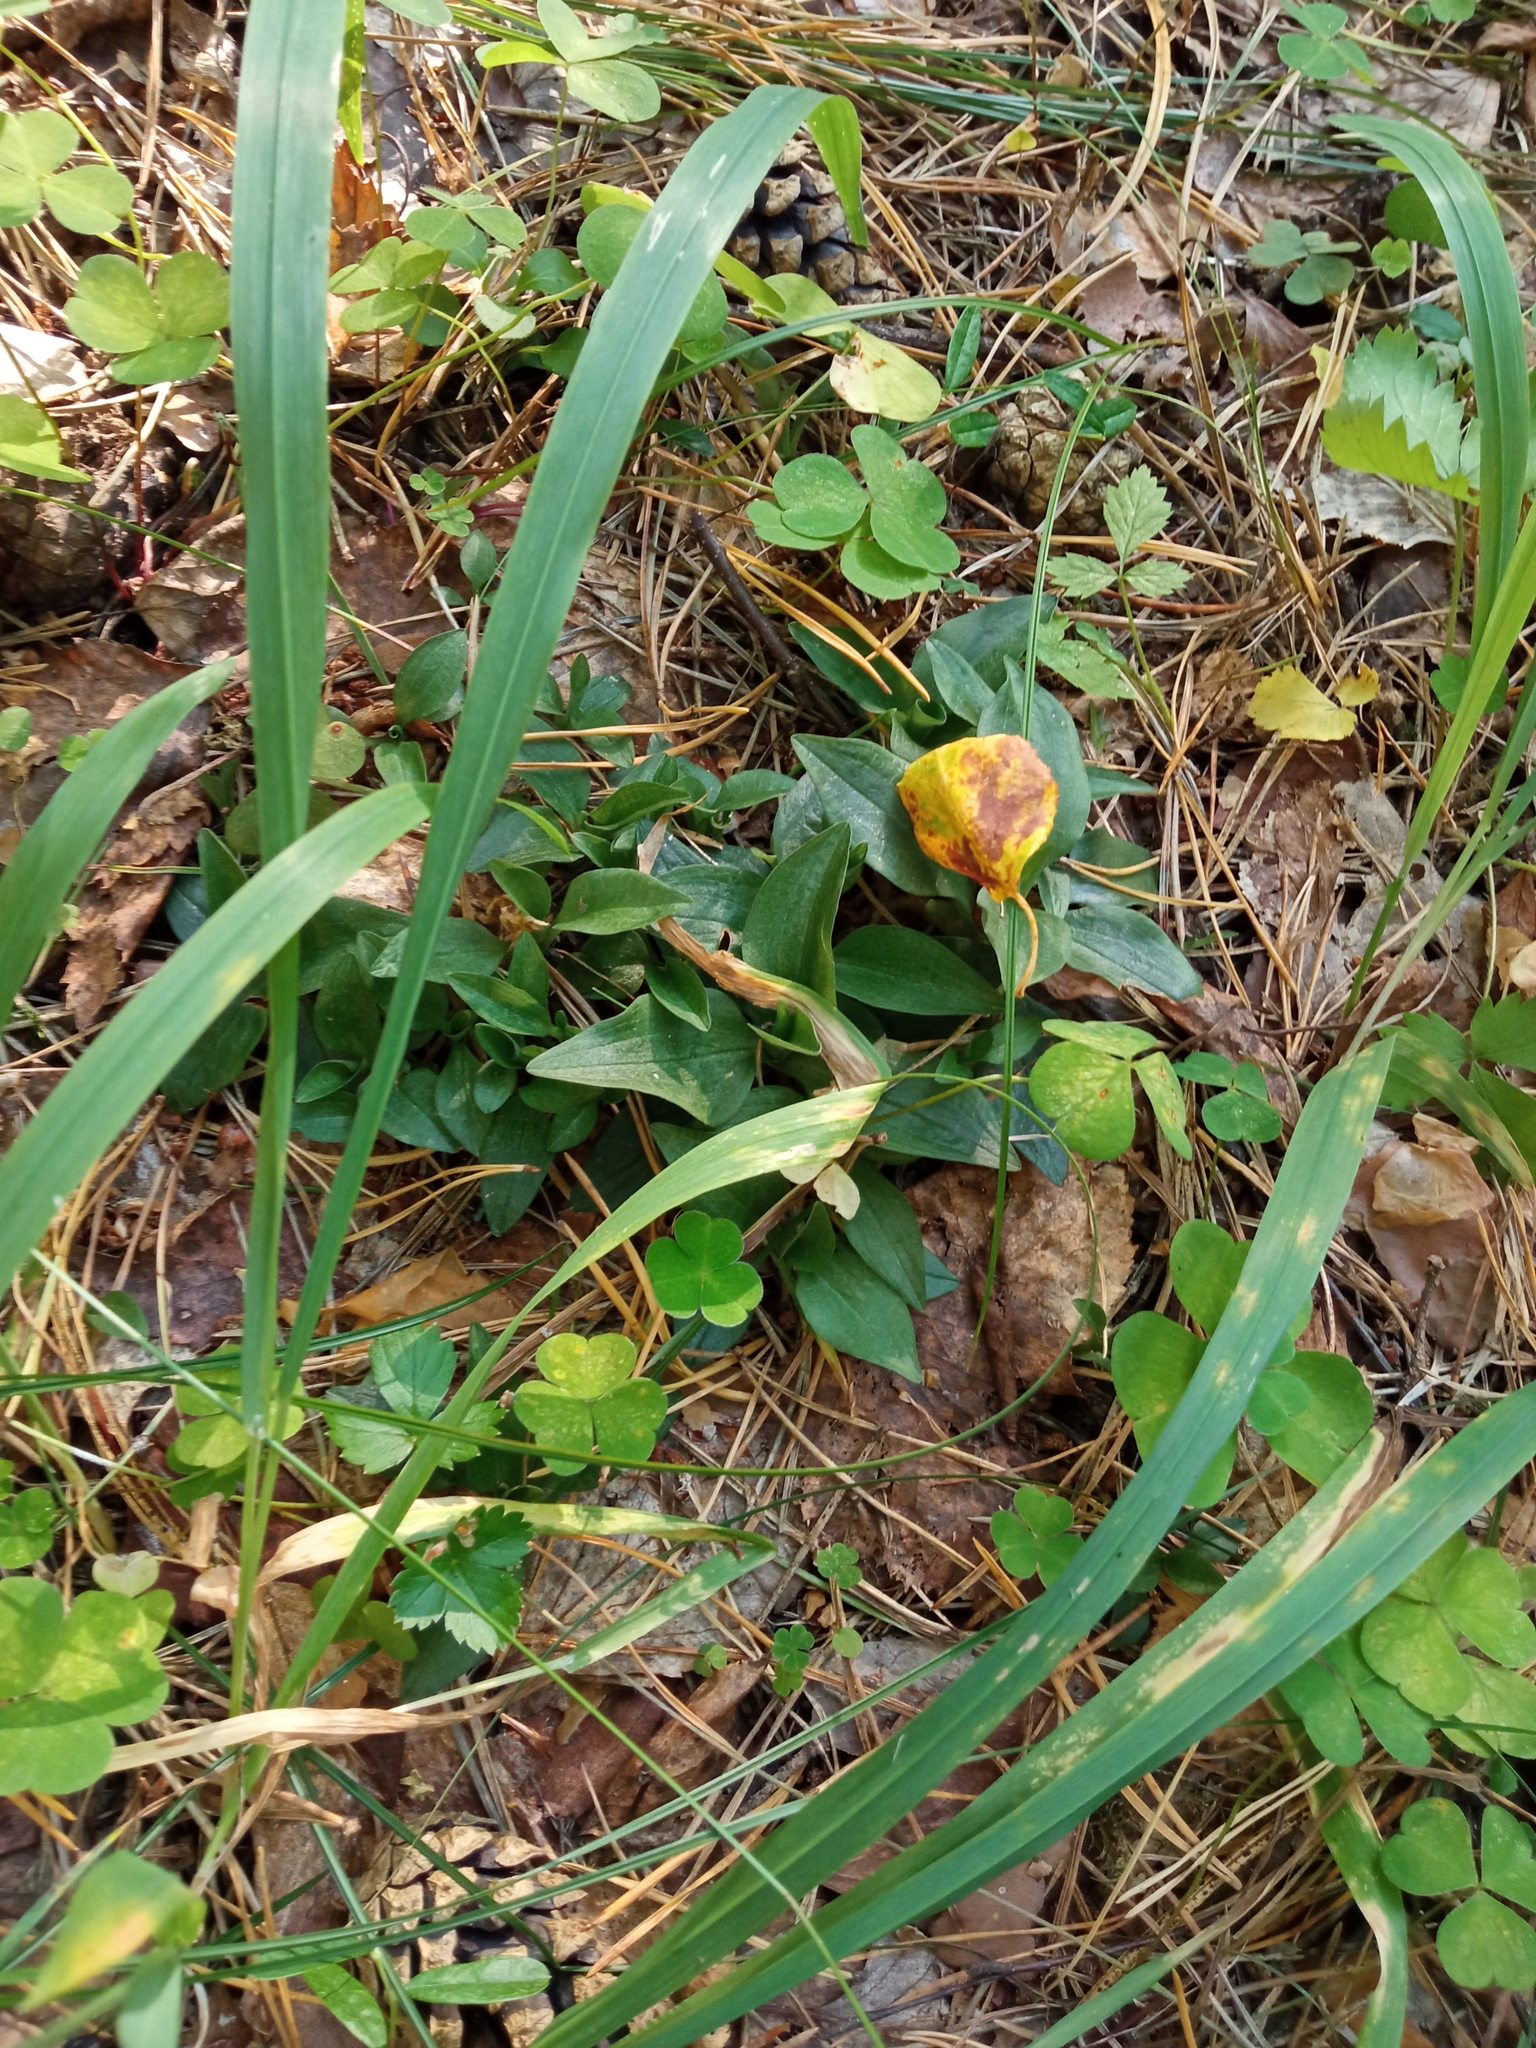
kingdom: Plantae
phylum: Tracheophyta
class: Liliopsida
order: Asparagales
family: Orchidaceae
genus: Goodyera
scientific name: Goodyera repens
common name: Creeping lady's-tresses
